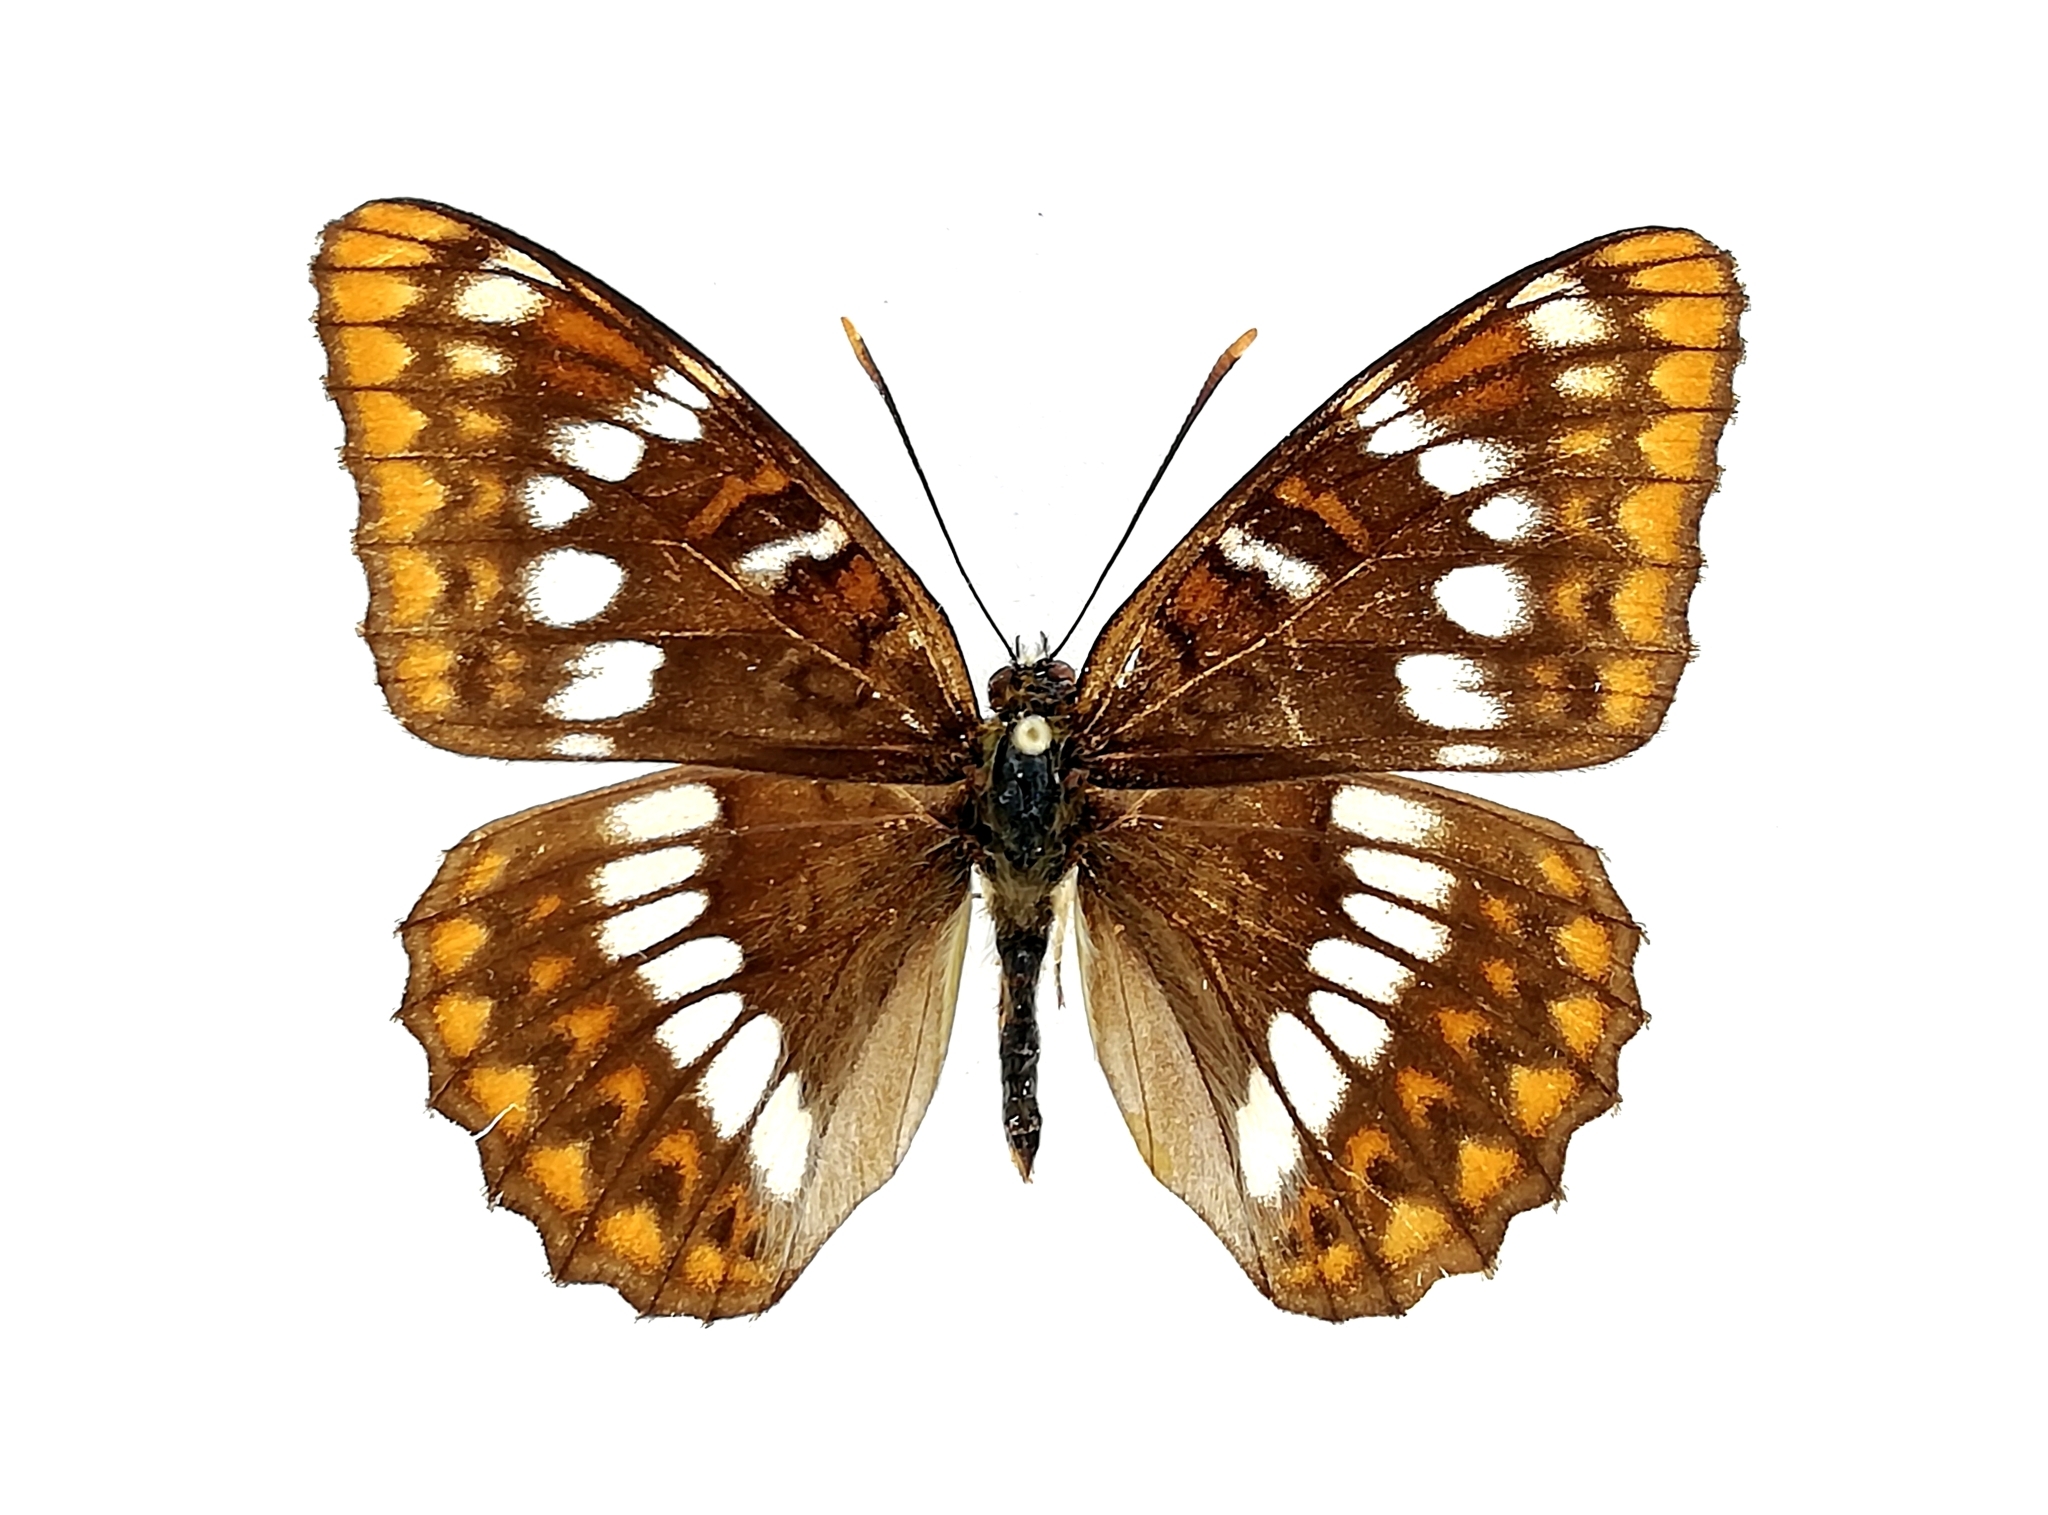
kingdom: Animalia
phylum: Arthropoda
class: Insecta
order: Lepidoptera
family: Nymphalidae
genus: Limenitis
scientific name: Limenitis lepechini
